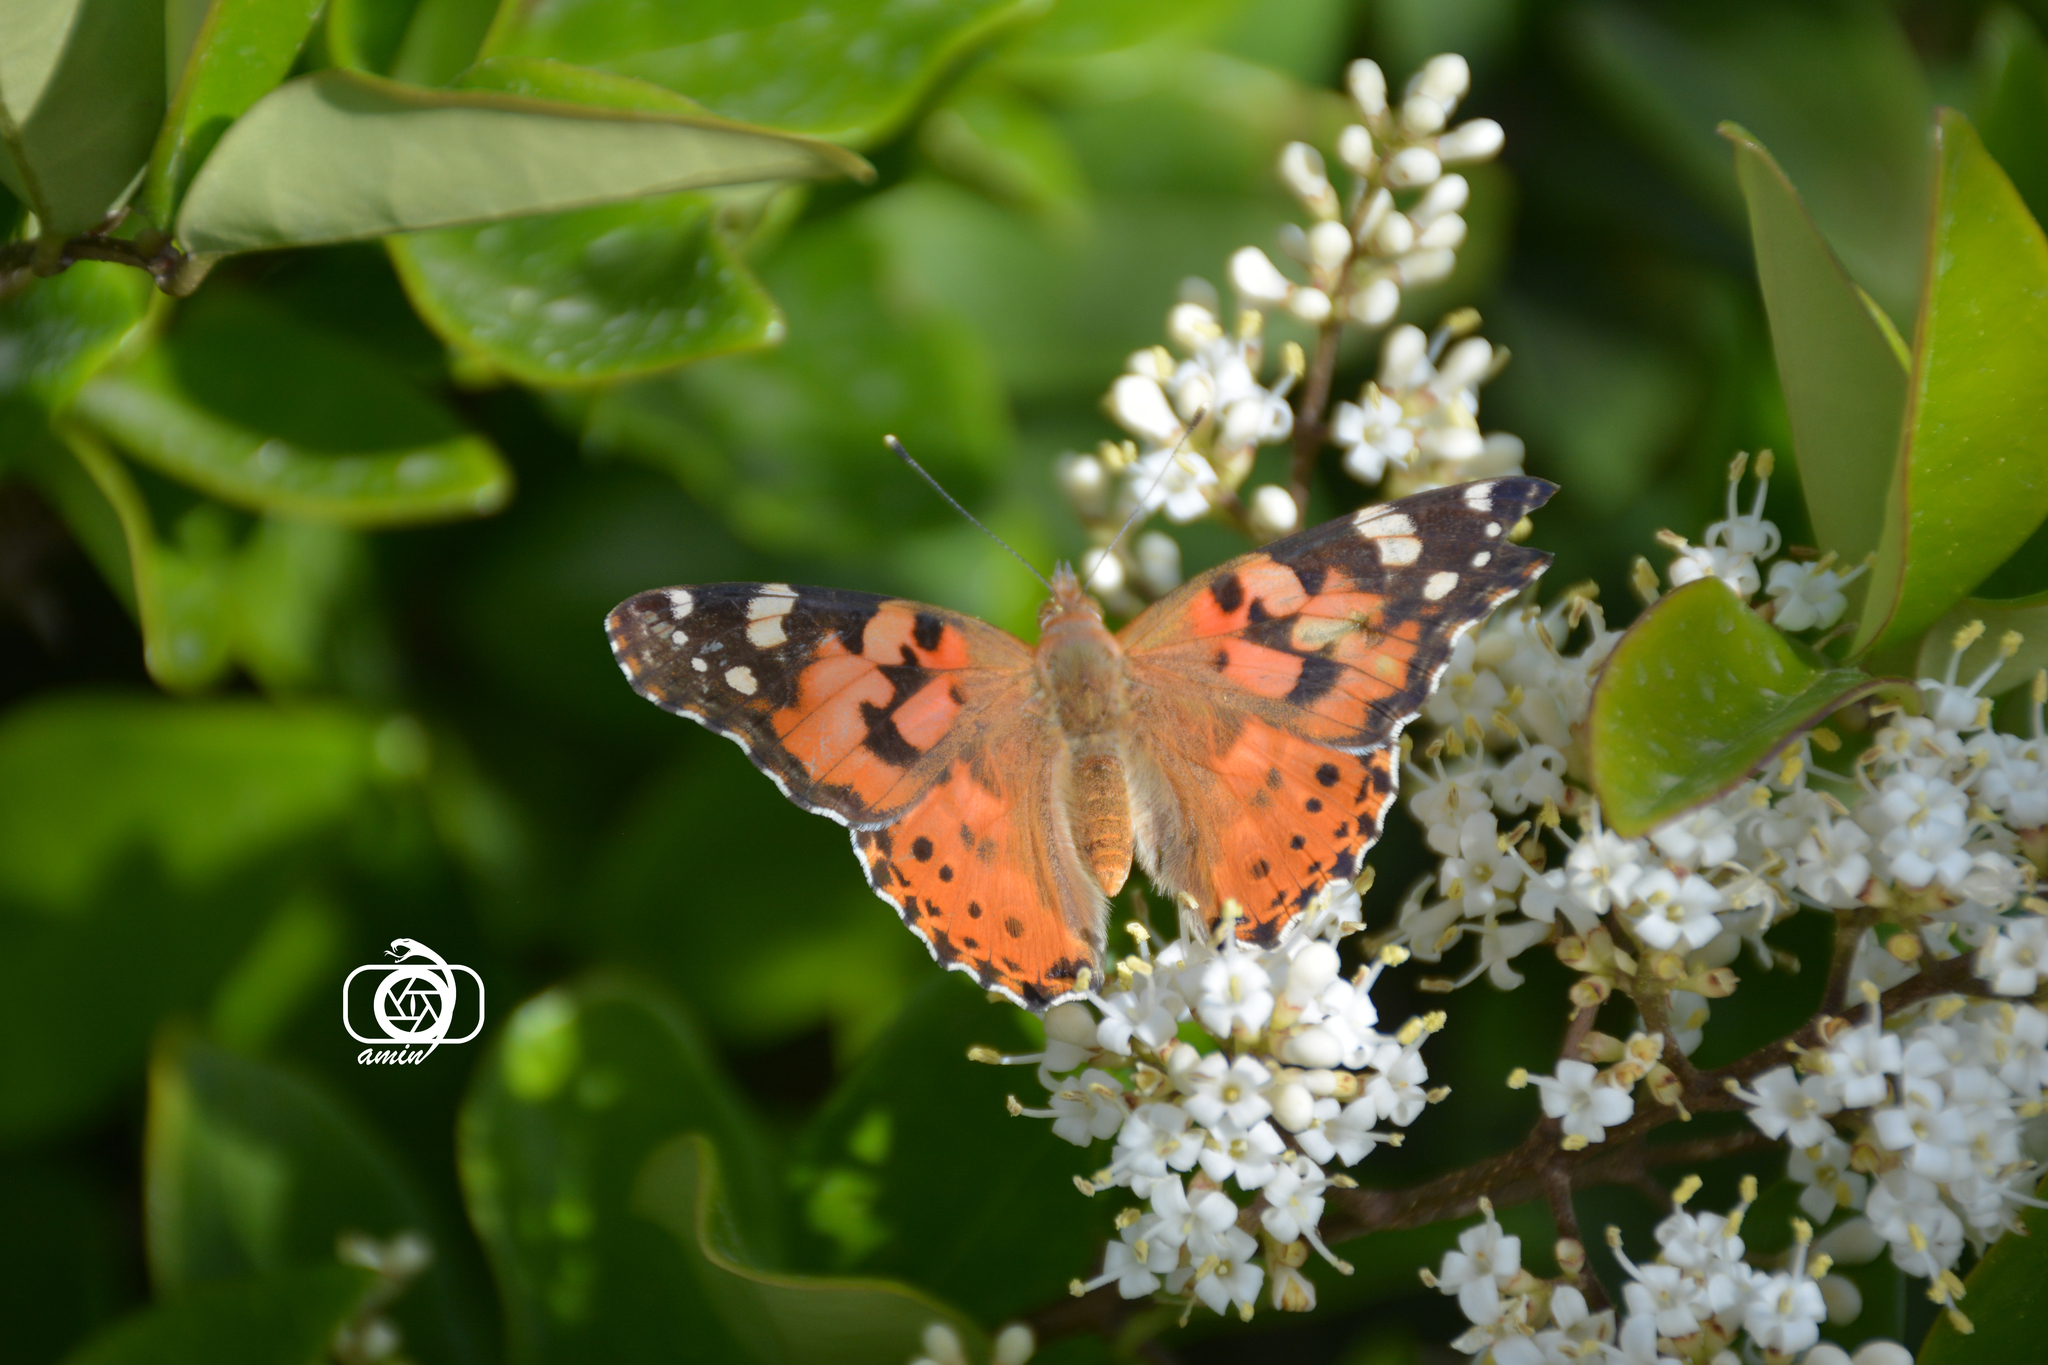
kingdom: Animalia
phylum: Arthropoda
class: Insecta
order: Lepidoptera
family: Nymphalidae
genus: Vanessa
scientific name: Vanessa cardui
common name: Painted lady
